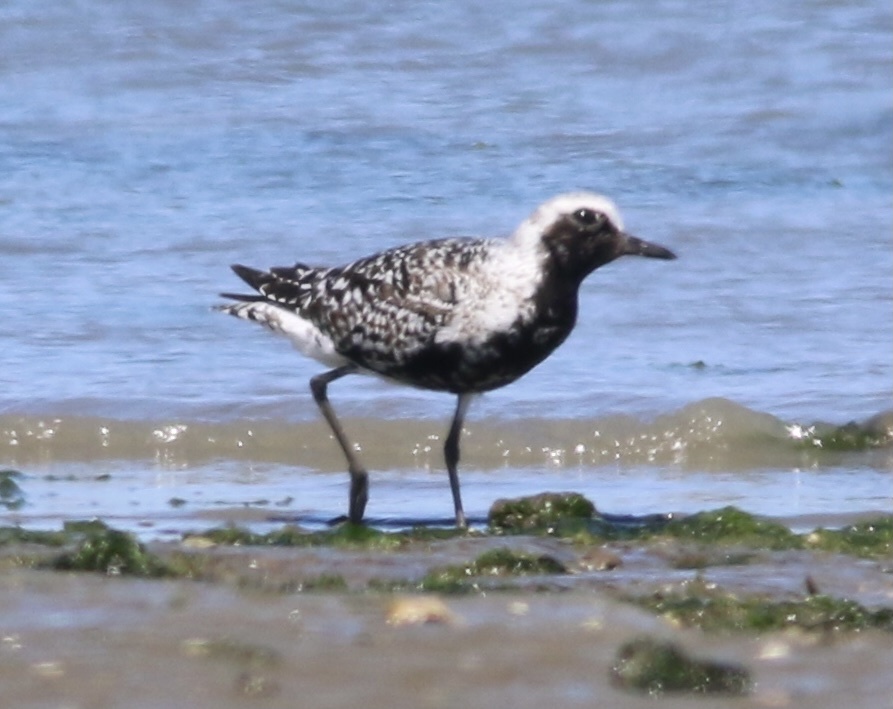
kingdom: Animalia
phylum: Chordata
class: Aves
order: Charadriiformes
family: Charadriidae
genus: Pluvialis
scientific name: Pluvialis squatarola
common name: Grey plover
